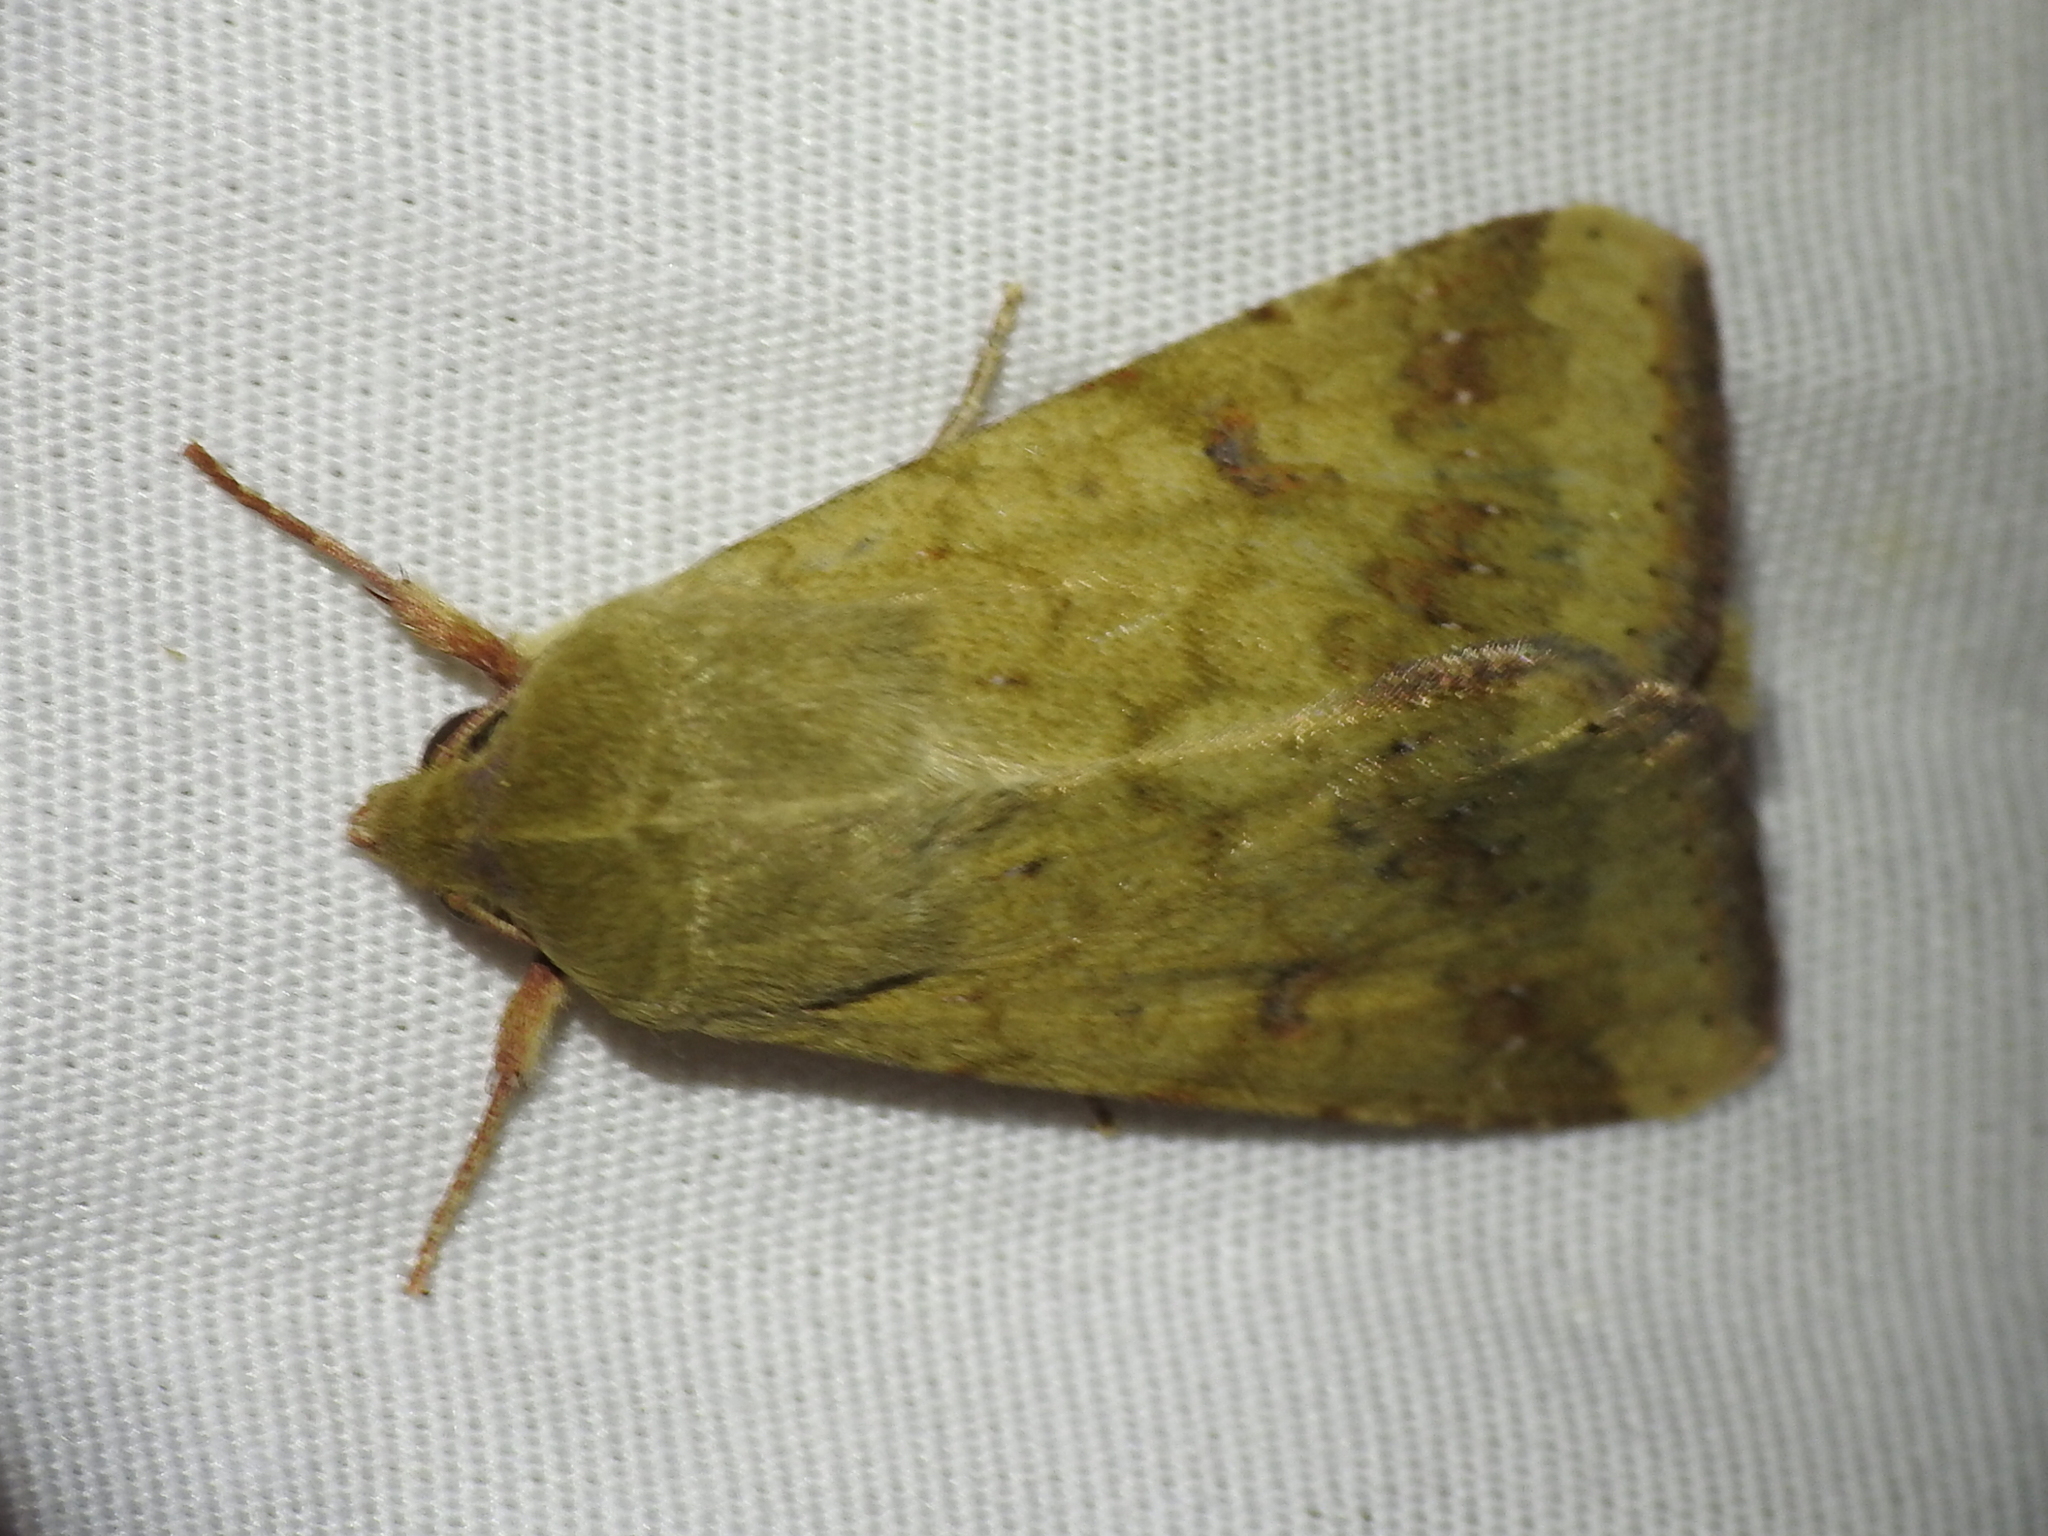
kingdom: Animalia
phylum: Arthropoda
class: Insecta
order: Lepidoptera
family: Noctuidae
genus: Helicoverpa
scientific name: Helicoverpa zea
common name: Bollworm
